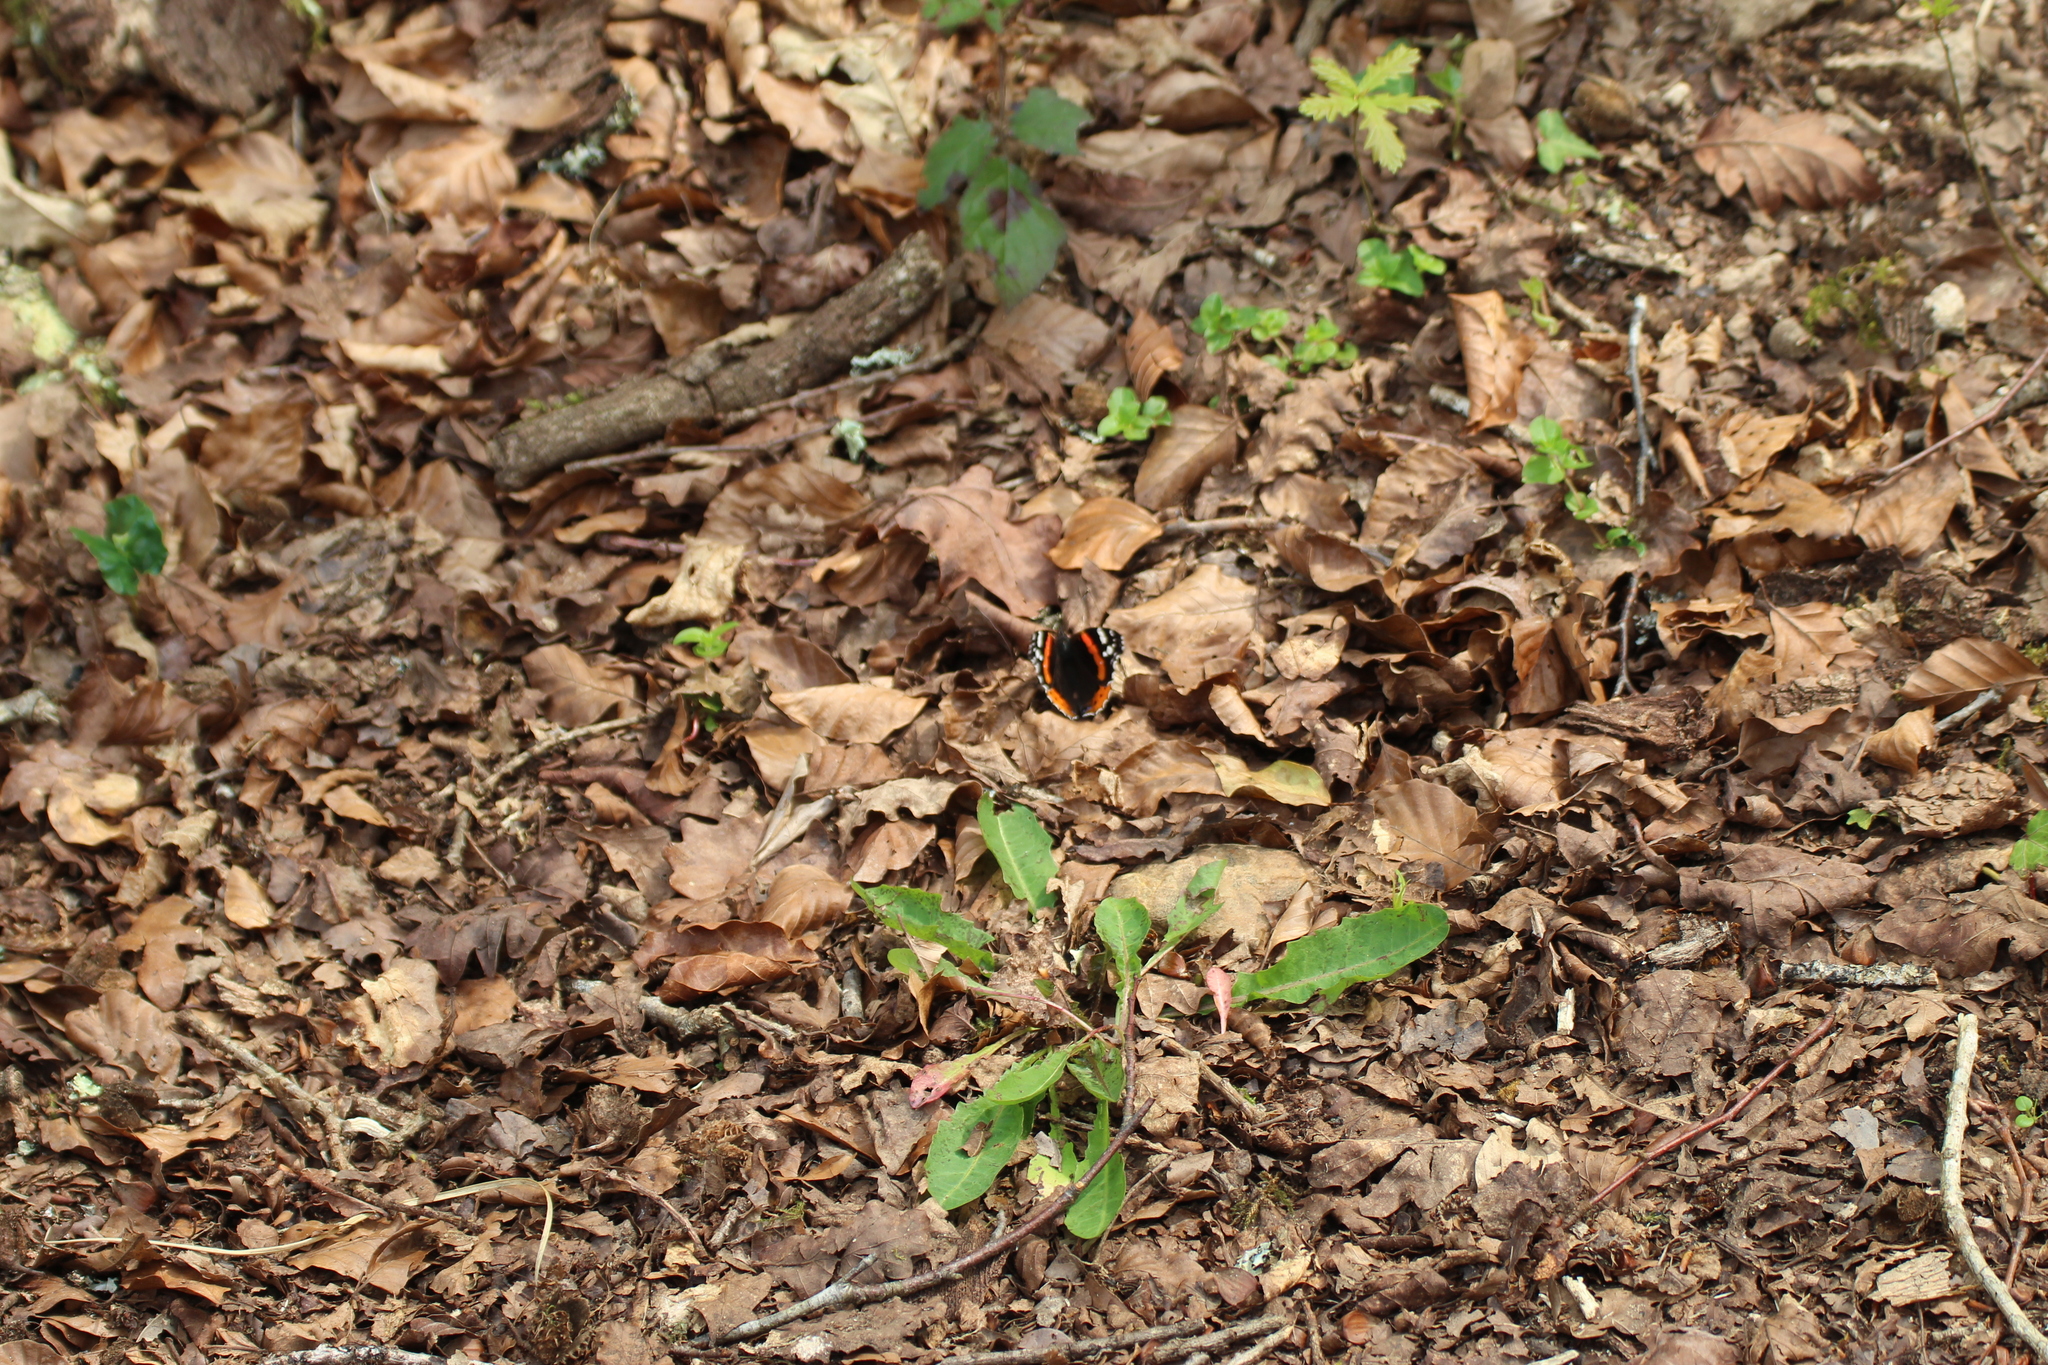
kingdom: Animalia
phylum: Arthropoda
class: Insecta
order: Lepidoptera
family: Nymphalidae
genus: Vanessa
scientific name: Vanessa atalanta
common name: Red admiral
